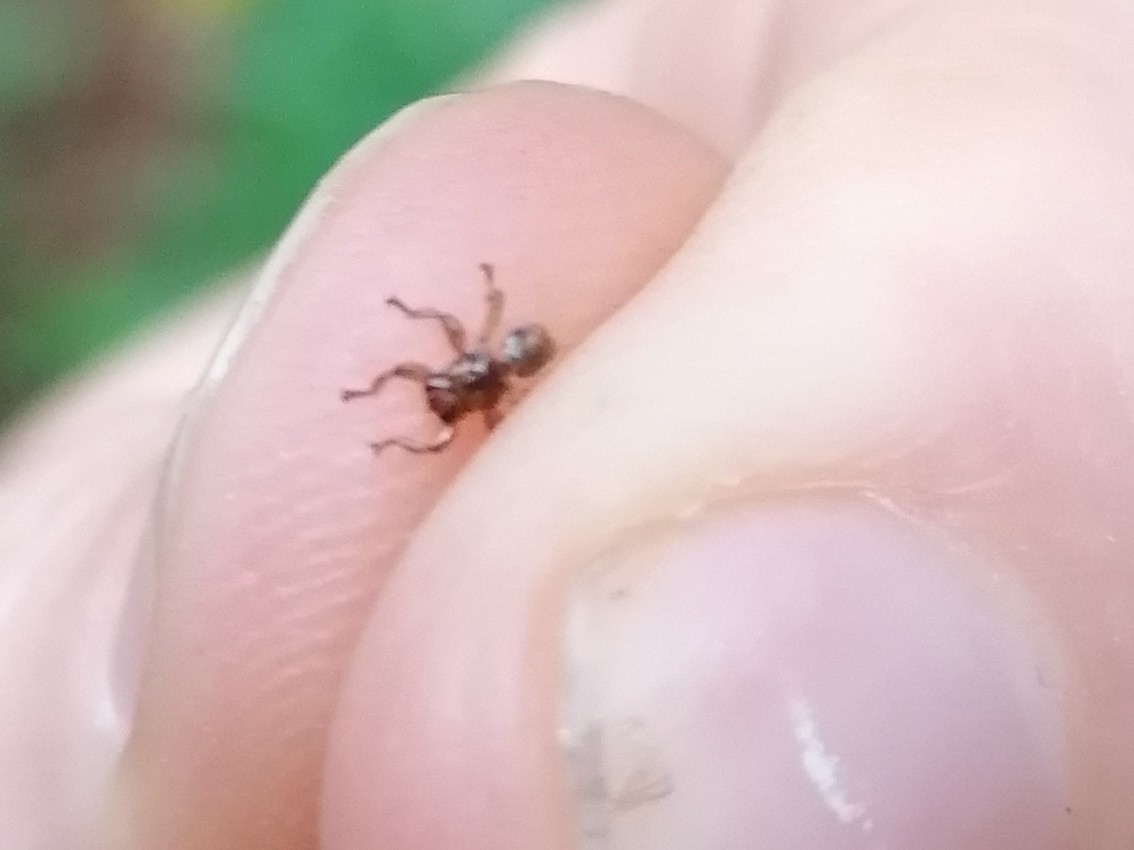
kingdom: Animalia
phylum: Arthropoda
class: Insecta
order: Diptera
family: Hippoboscidae
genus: Lipoptena
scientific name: Lipoptena cervi
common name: Deer ked
